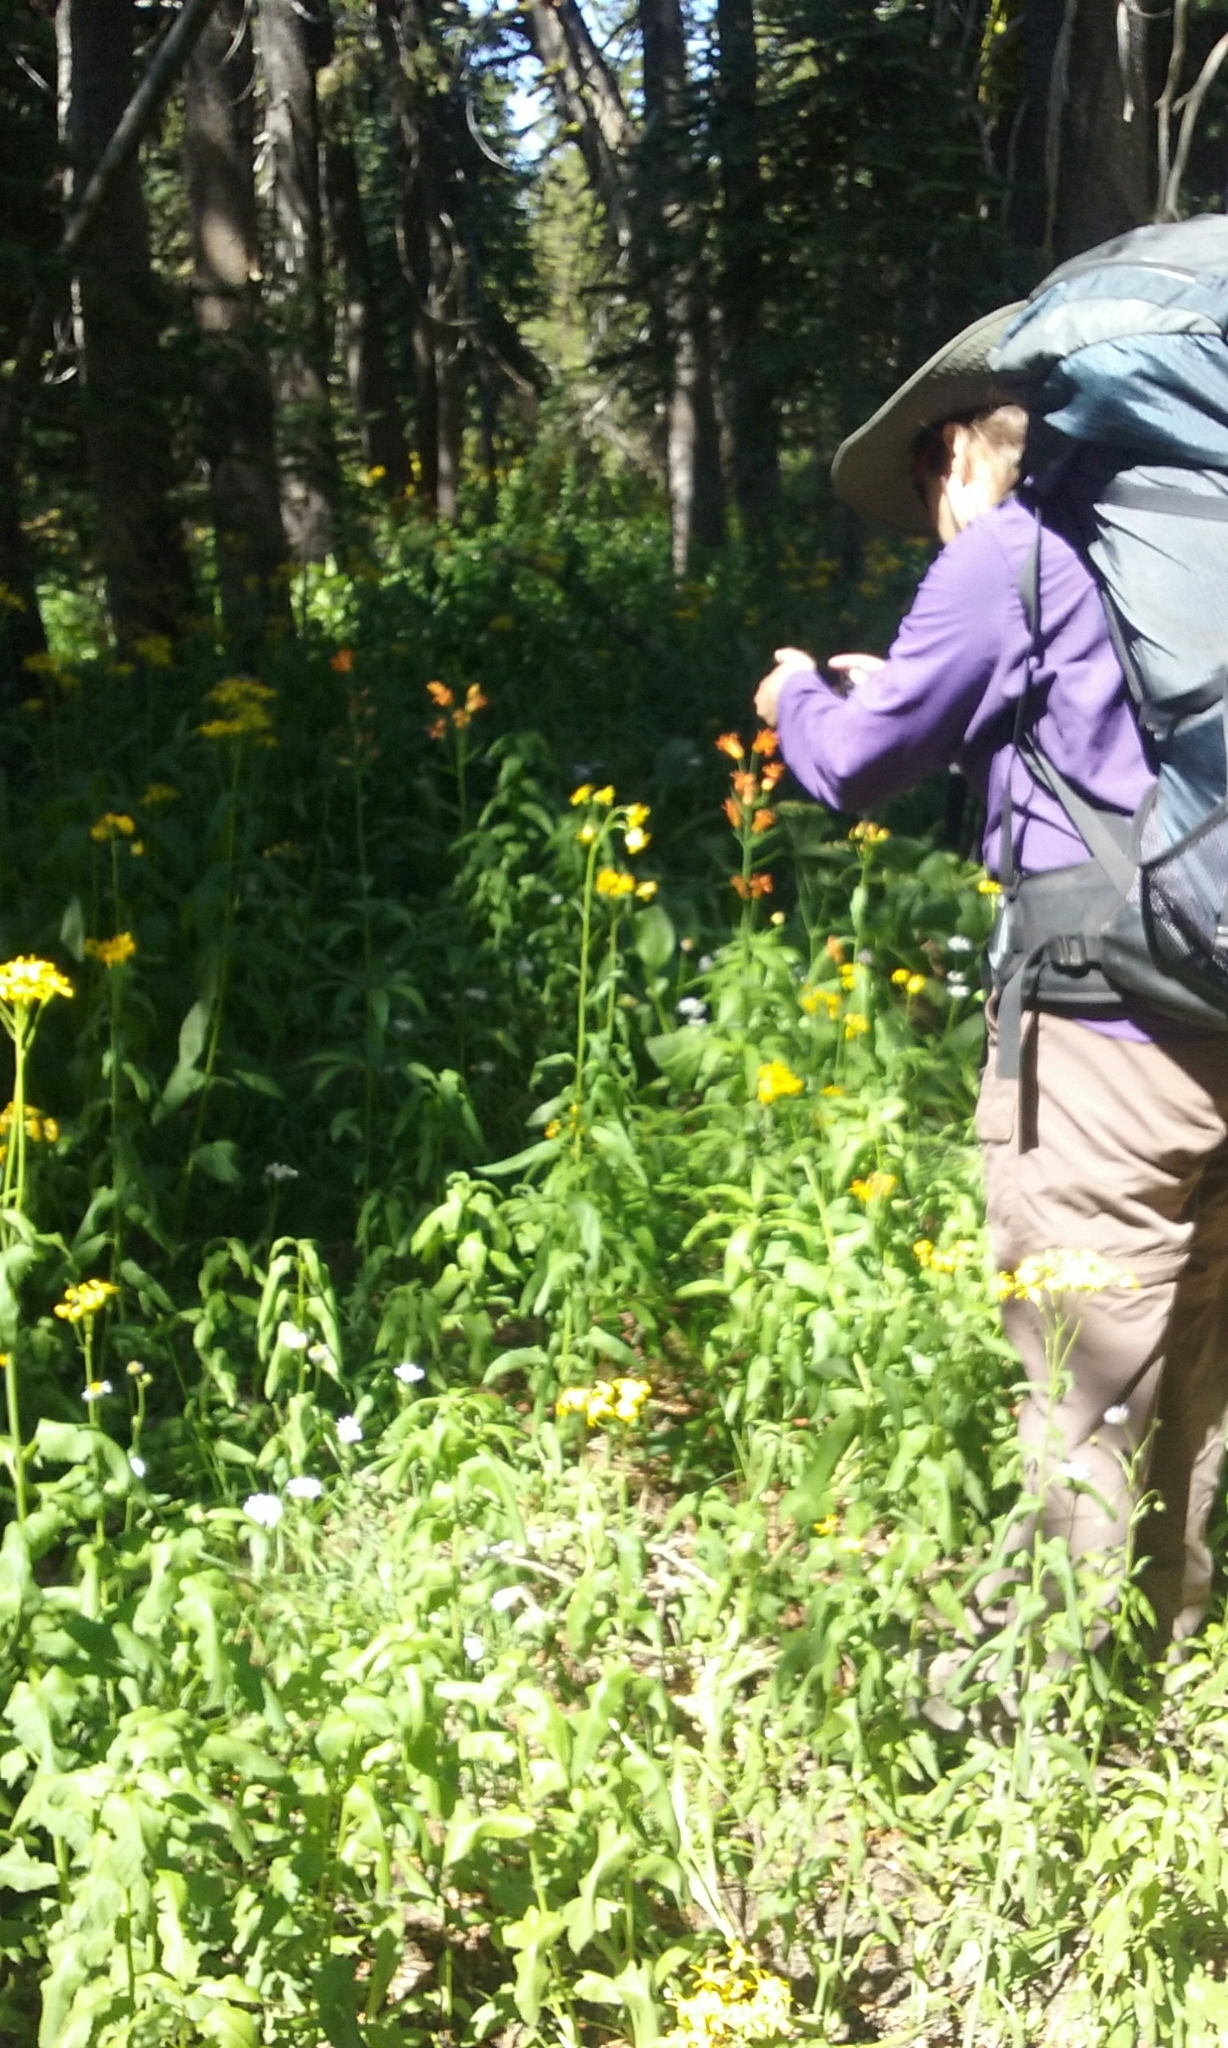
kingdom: Plantae
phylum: Tracheophyta
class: Liliopsida
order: Liliales
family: Liliaceae
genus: Lilium
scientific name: Lilium parvum
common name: Alpine lily
